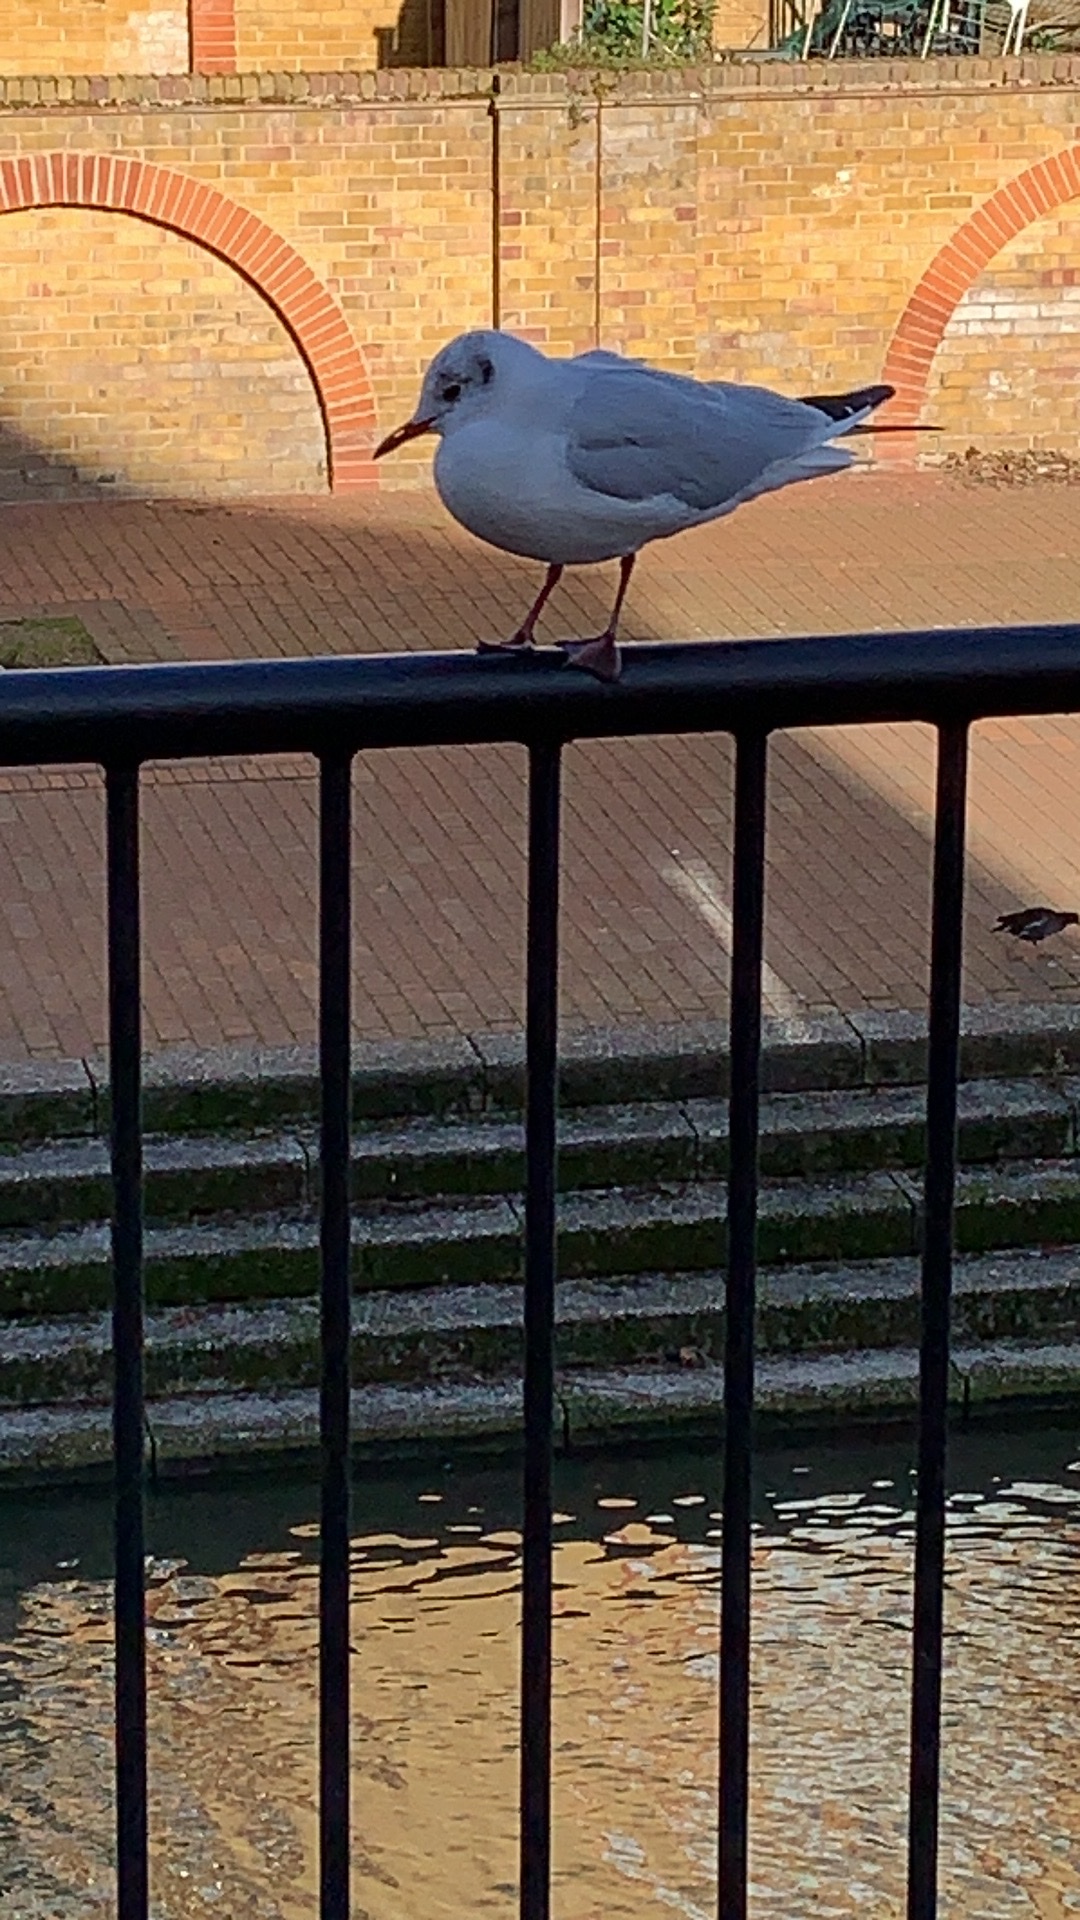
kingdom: Animalia
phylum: Chordata
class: Aves
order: Charadriiformes
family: Laridae
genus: Chroicocephalus
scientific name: Chroicocephalus ridibundus
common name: Black-headed gull
